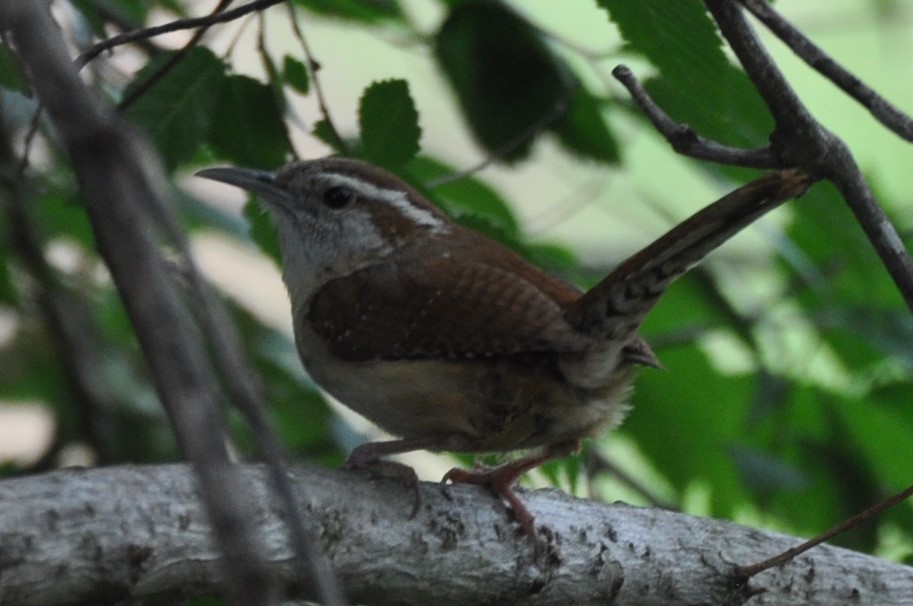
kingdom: Animalia
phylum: Chordata
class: Aves
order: Passeriformes
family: Troglodytidae
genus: Thryothorus
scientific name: Thryothorus ludovicianus
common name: Carolina wren
